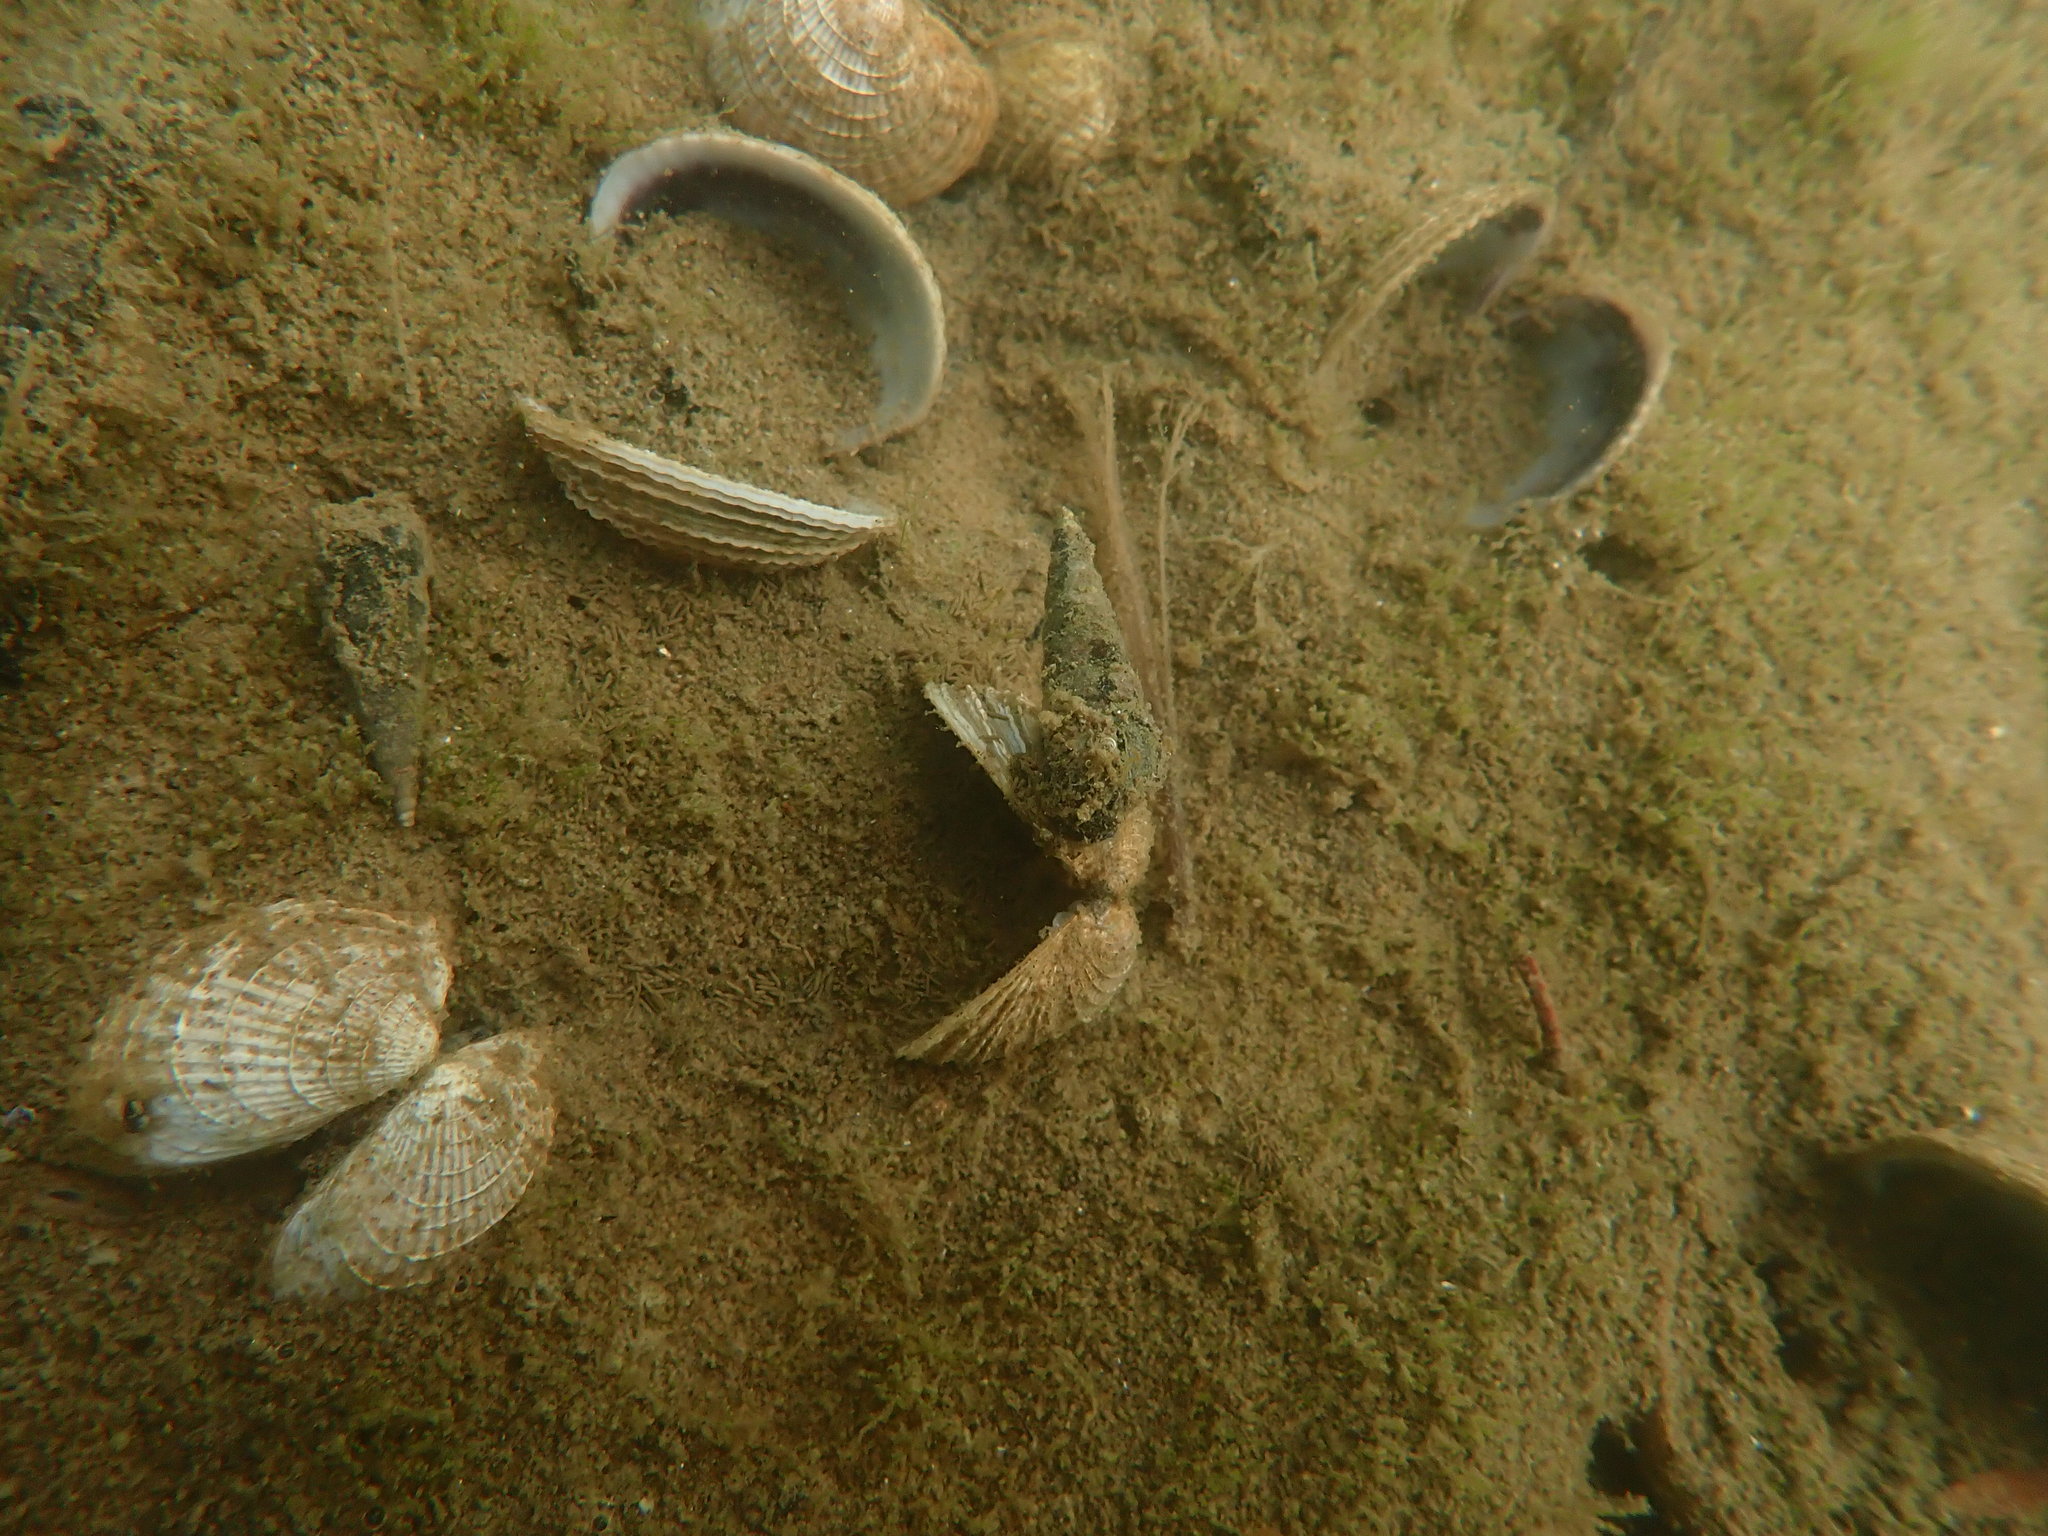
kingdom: Animalia
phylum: Mollusca
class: Gastropoda
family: Batillariidae
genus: Zeacumantus
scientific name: Zeacumantus lutulentus
